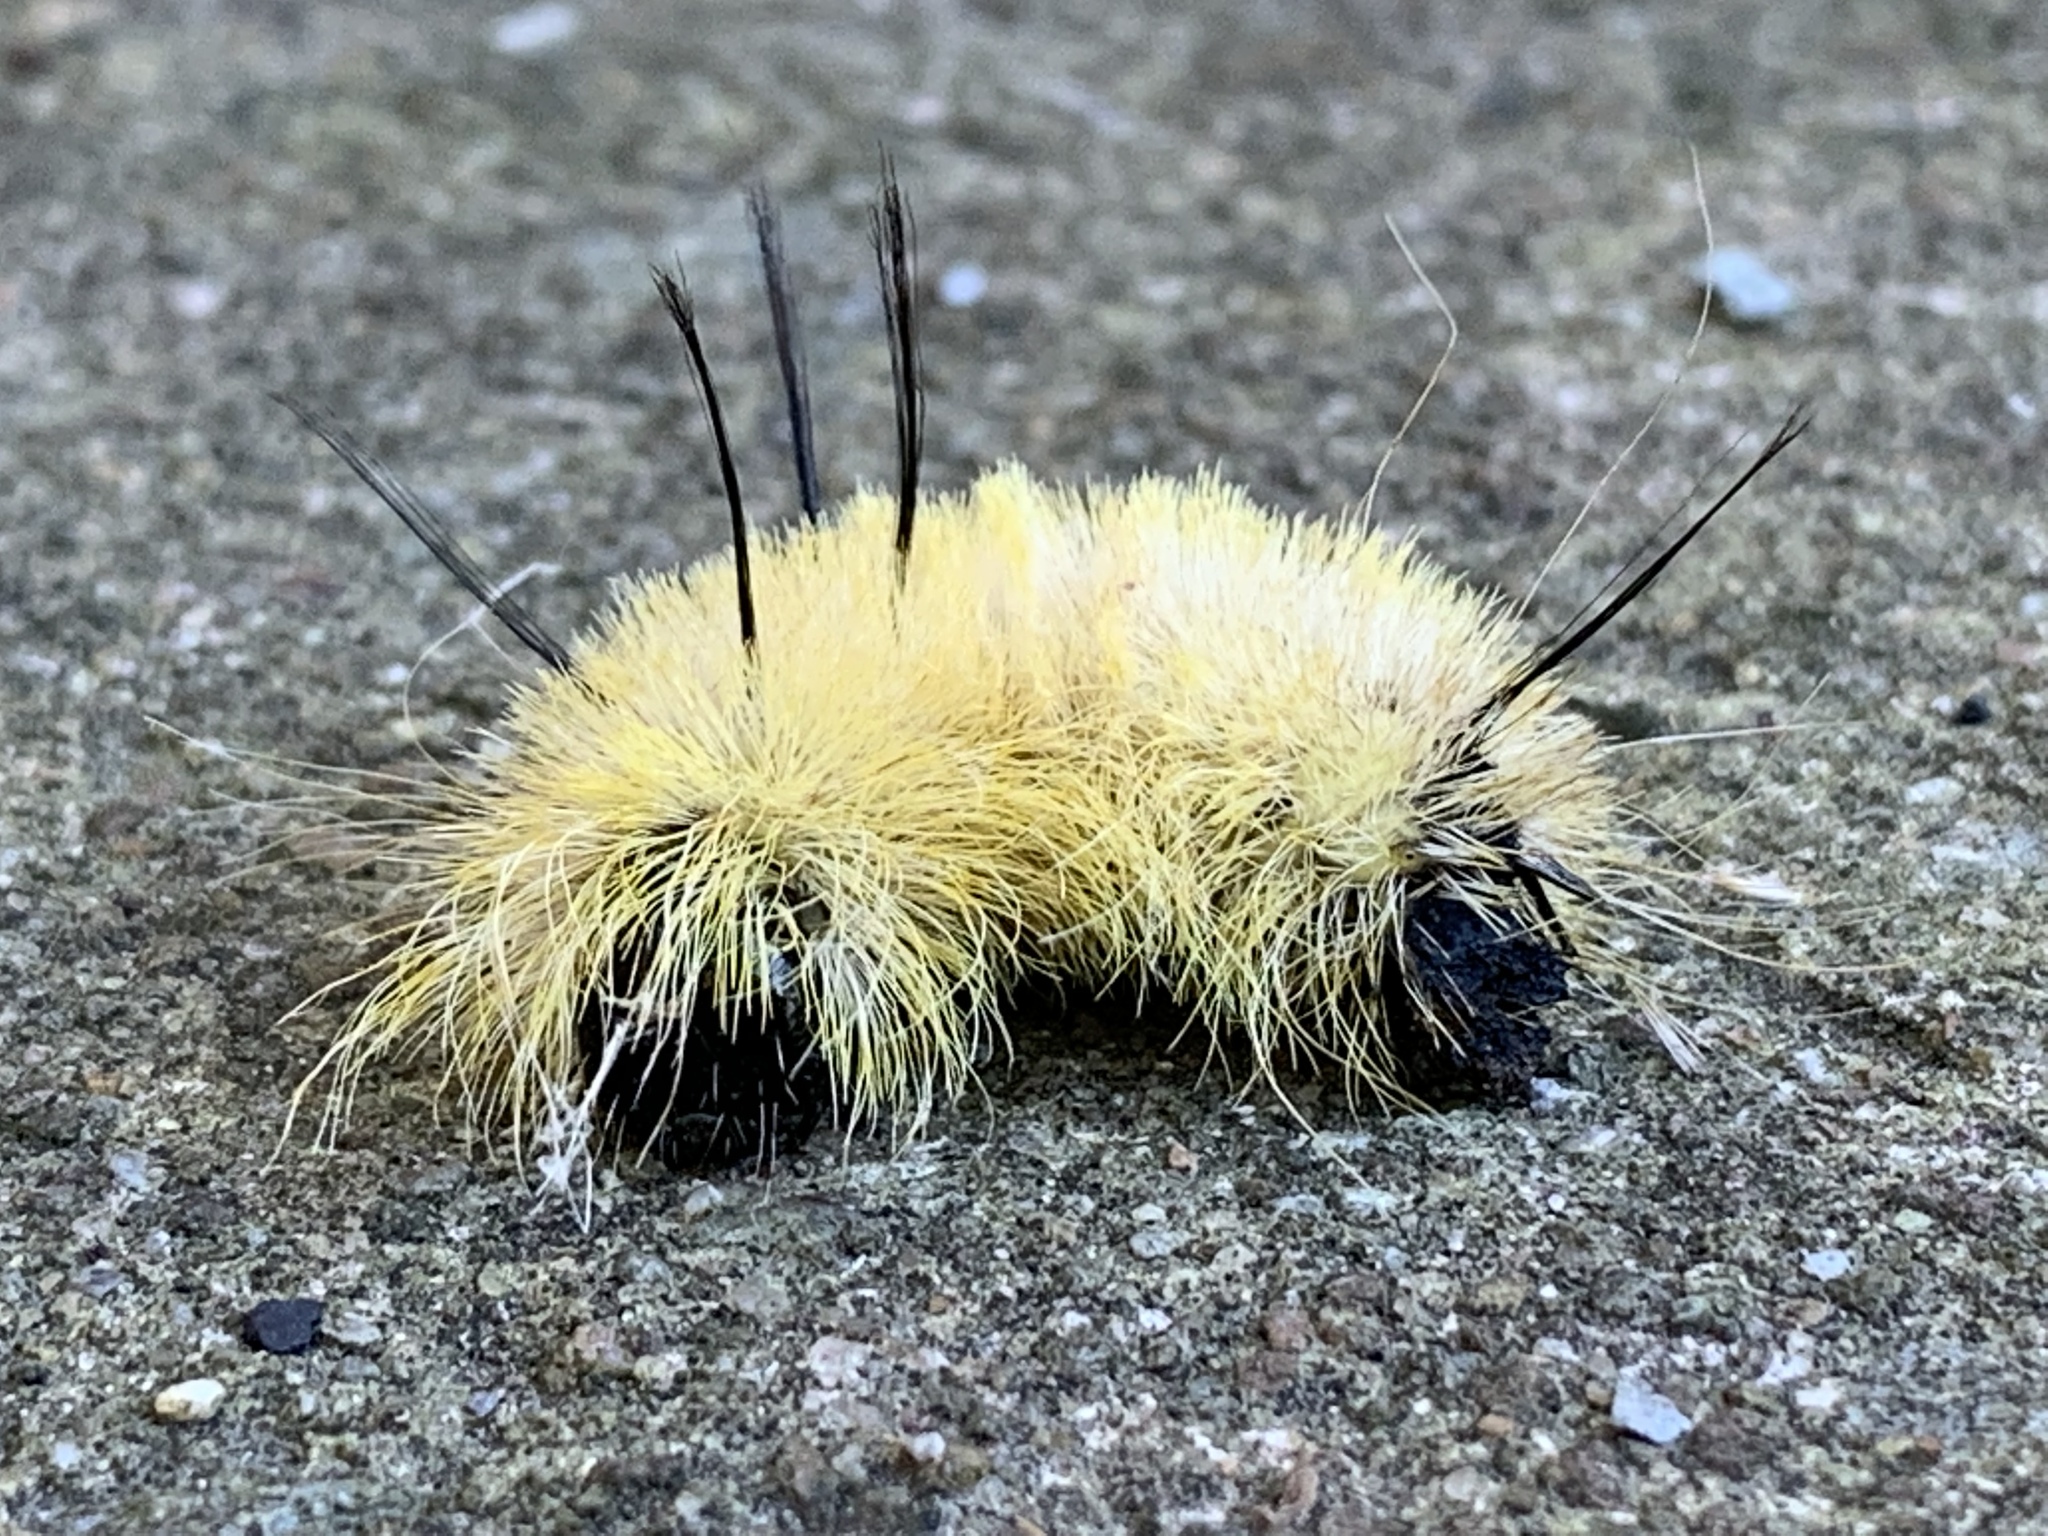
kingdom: Animalia
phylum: Arthropoda
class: Insecta
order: Lepidoptera
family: Noctuidae
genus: Acronicta
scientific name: Acronicta americana
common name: American dagger
